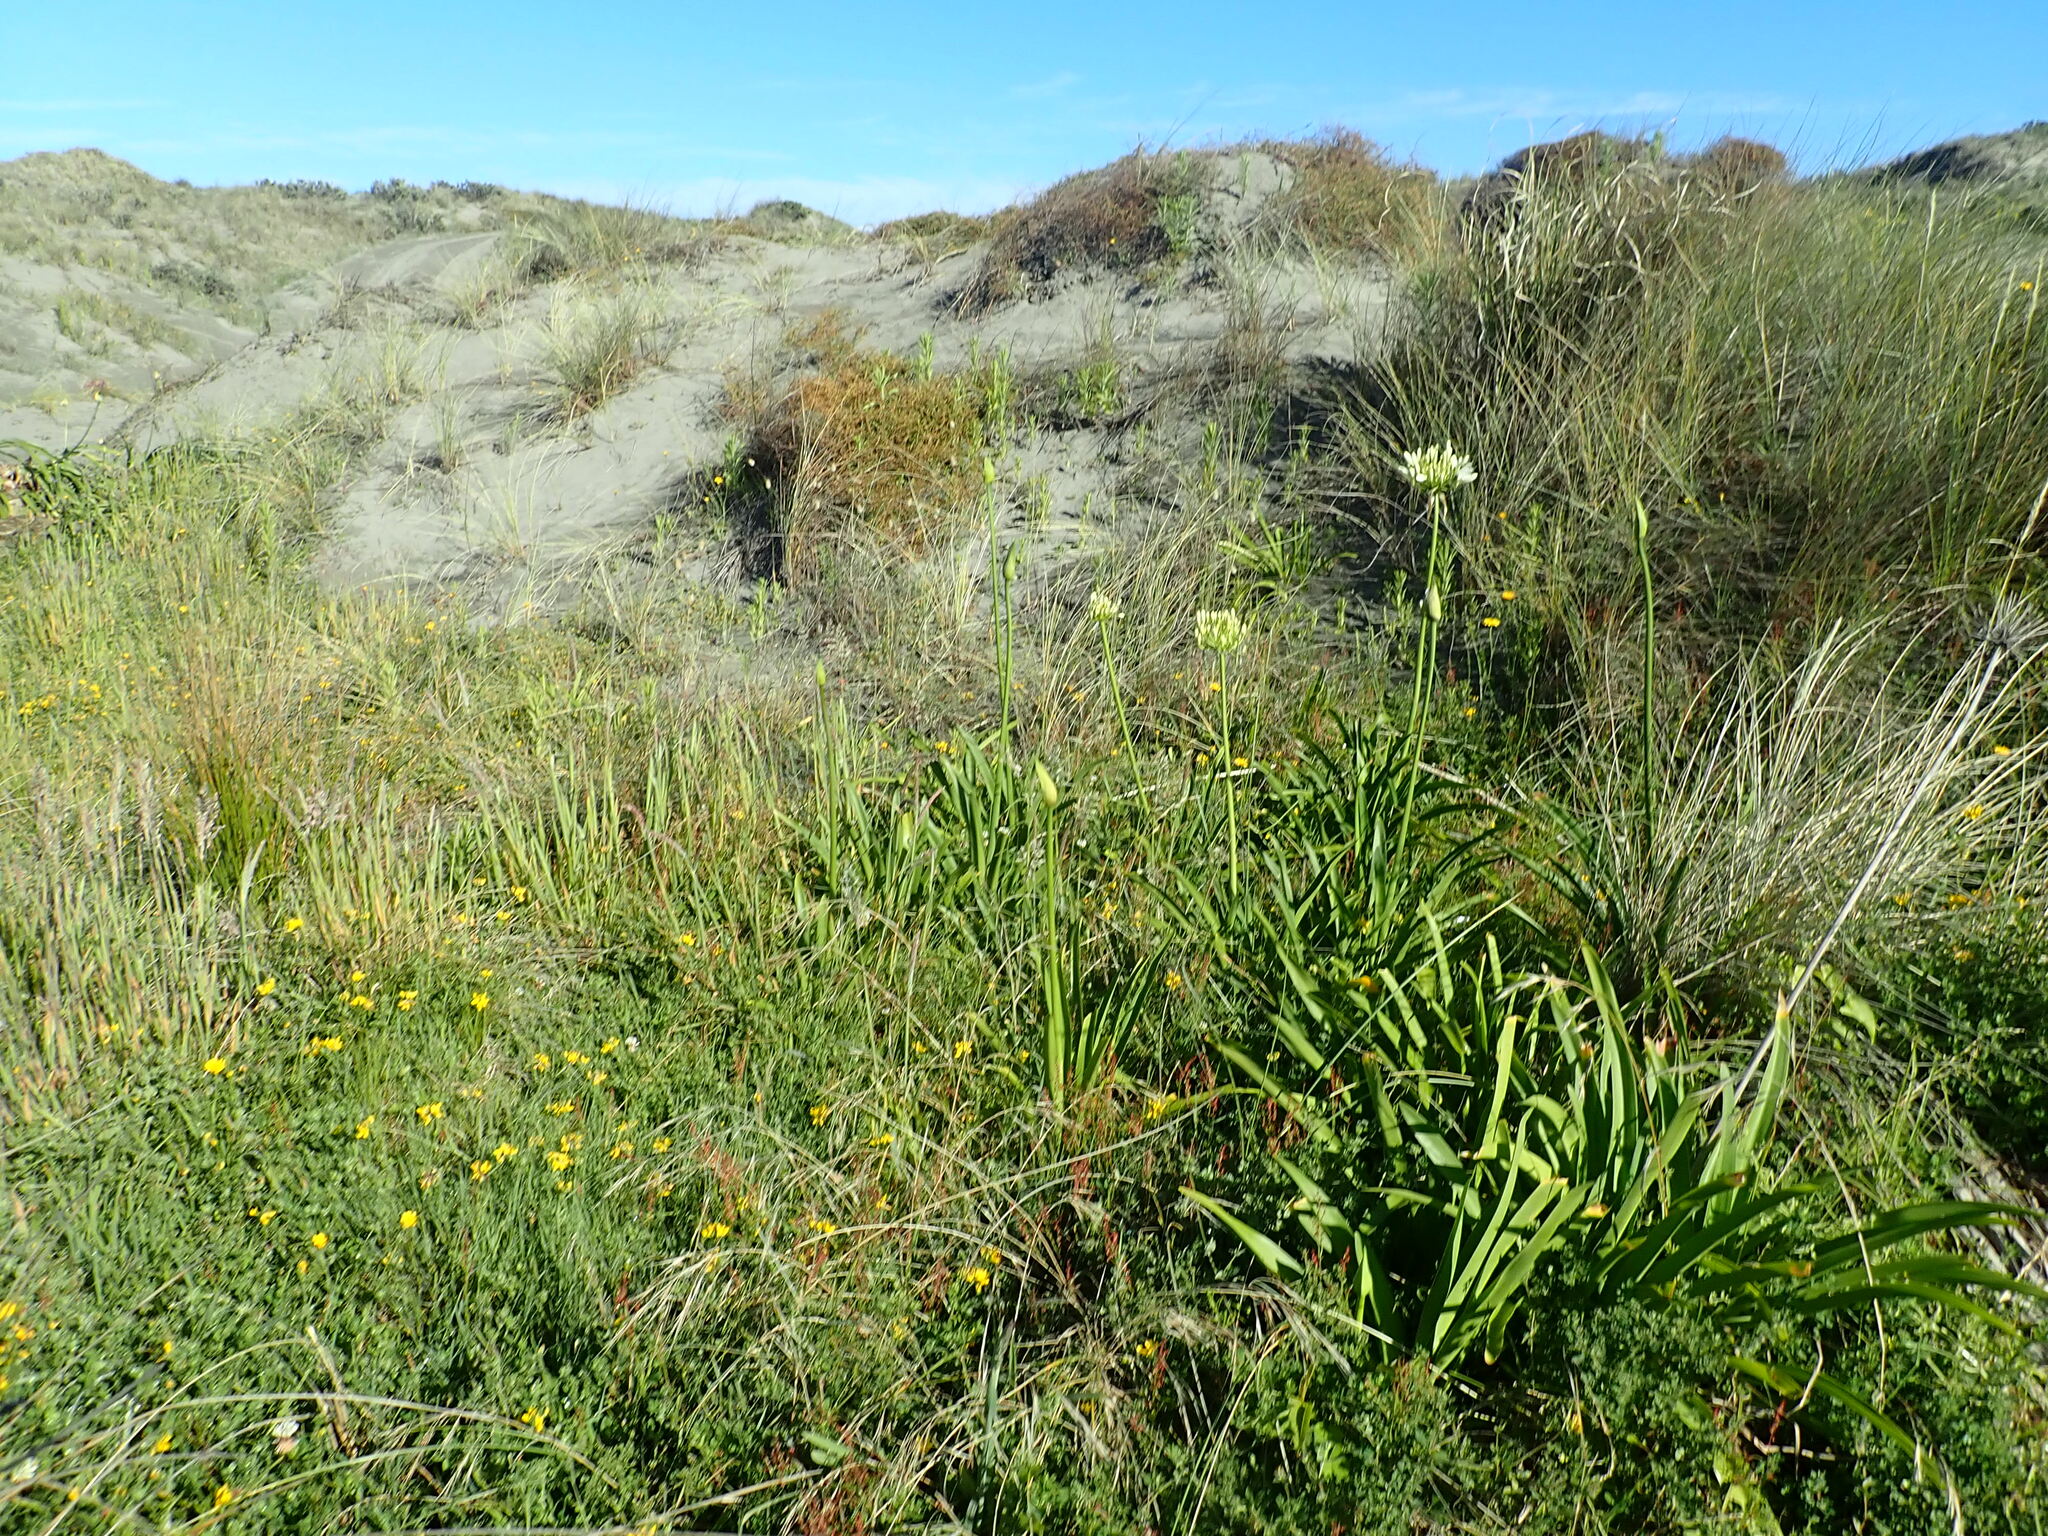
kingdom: Plantae
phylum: Tracheophyta
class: Liliopsida
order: Asparagales
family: Amaryllidaceae
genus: Agapanthus
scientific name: Agapanthus praecox
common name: African-lily
